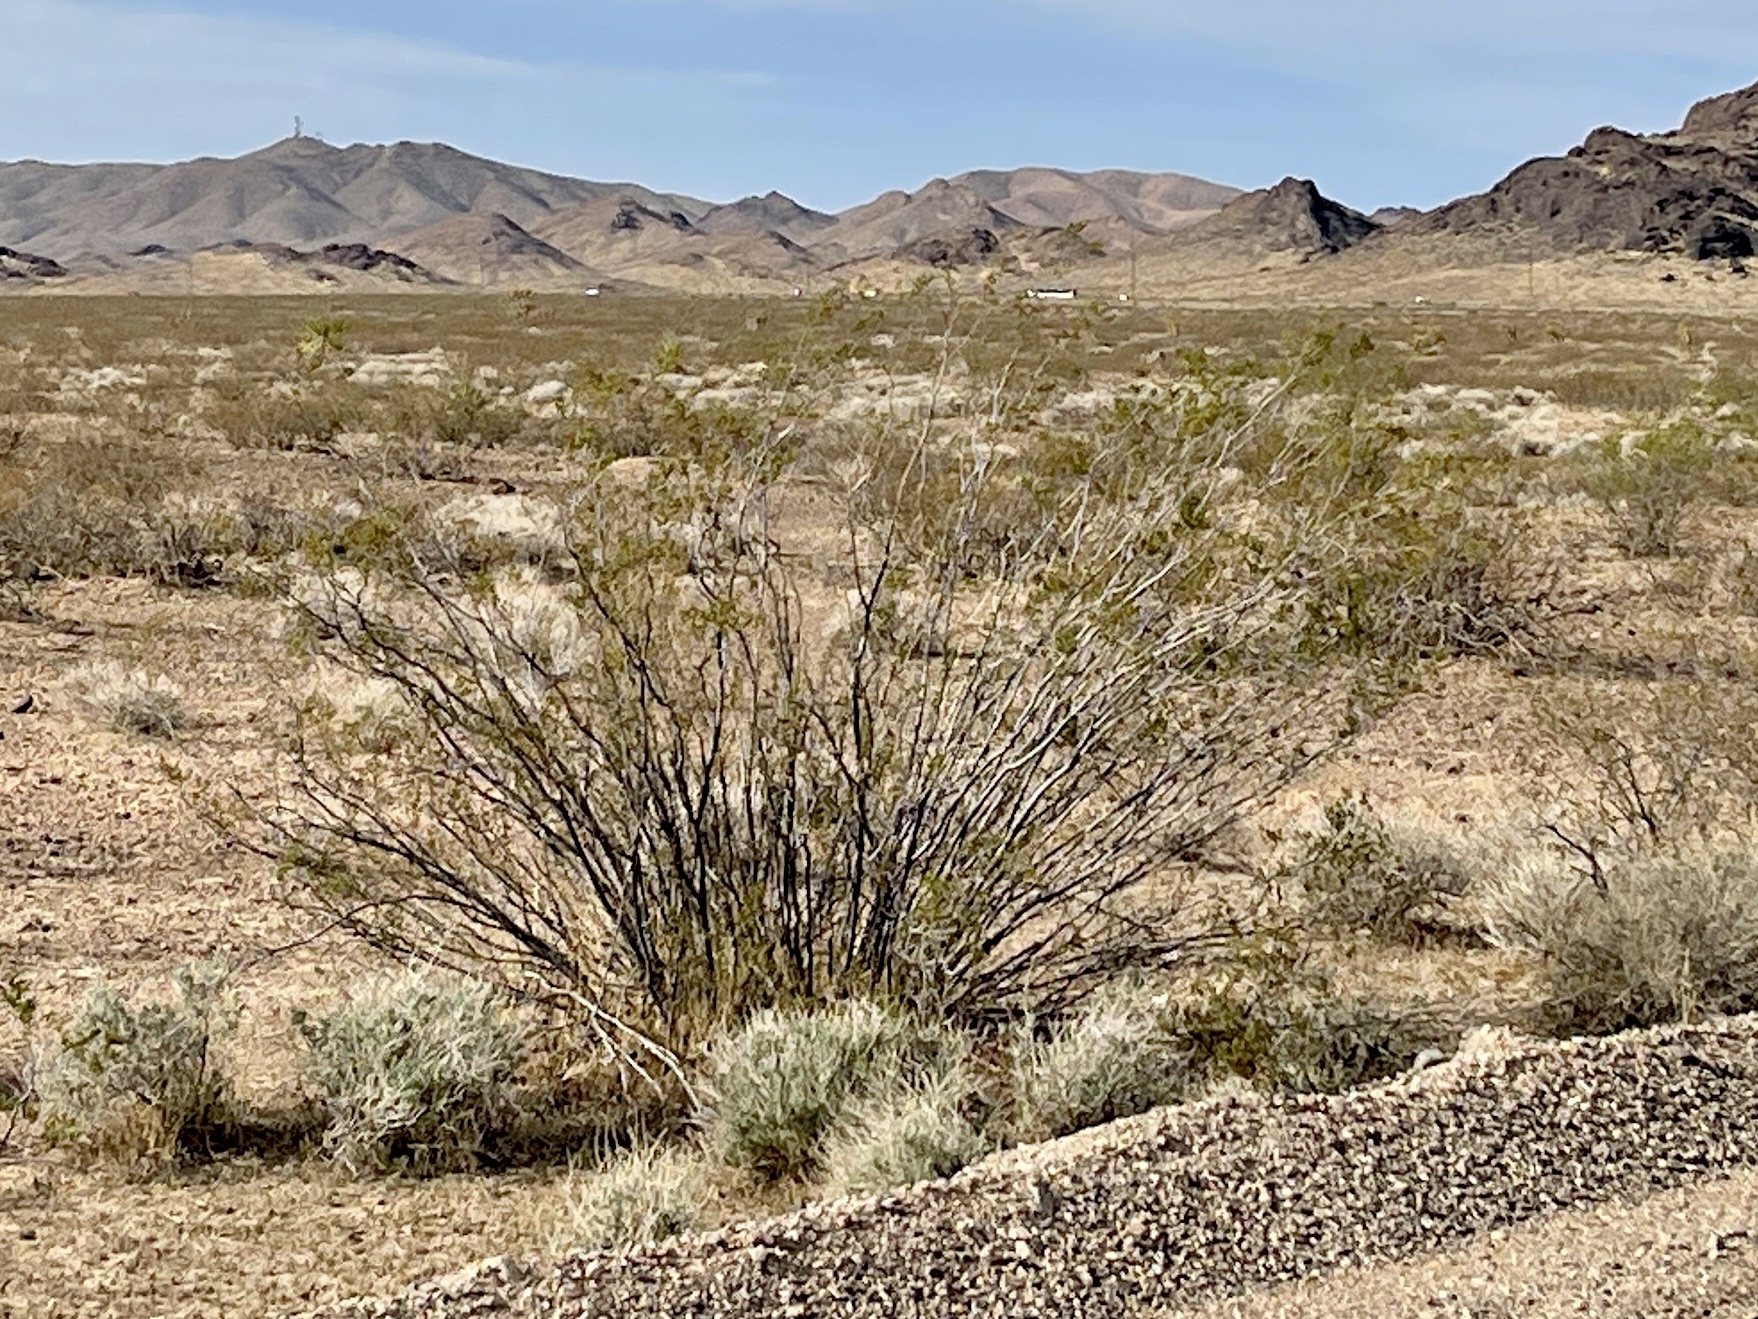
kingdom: Plantae
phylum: Tracheophyta
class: Magnoliopsida
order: Zygophyllales
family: Zygophyllaceae
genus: Larrea
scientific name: Larrea tridentata
